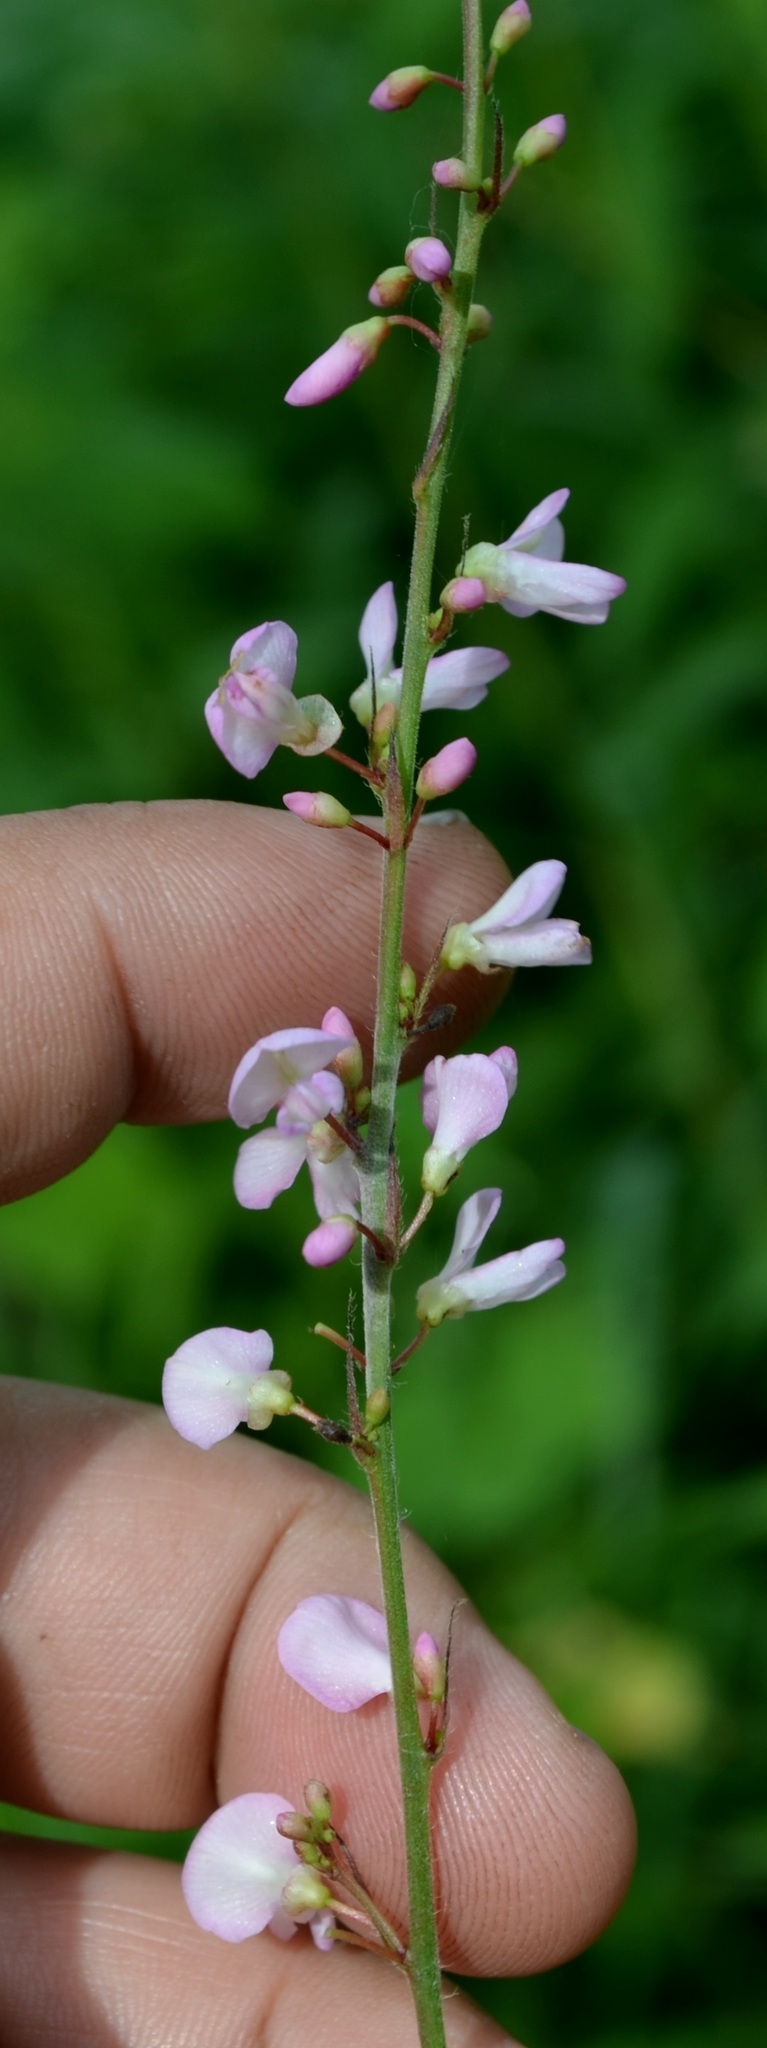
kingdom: Plantae
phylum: Tracheophyta
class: Magnoliopsida
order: Fabales
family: Fabaceae
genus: Hylodesmum
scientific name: Hylodesmum glutinosum
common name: Clustered-leaved tick-trefoil
